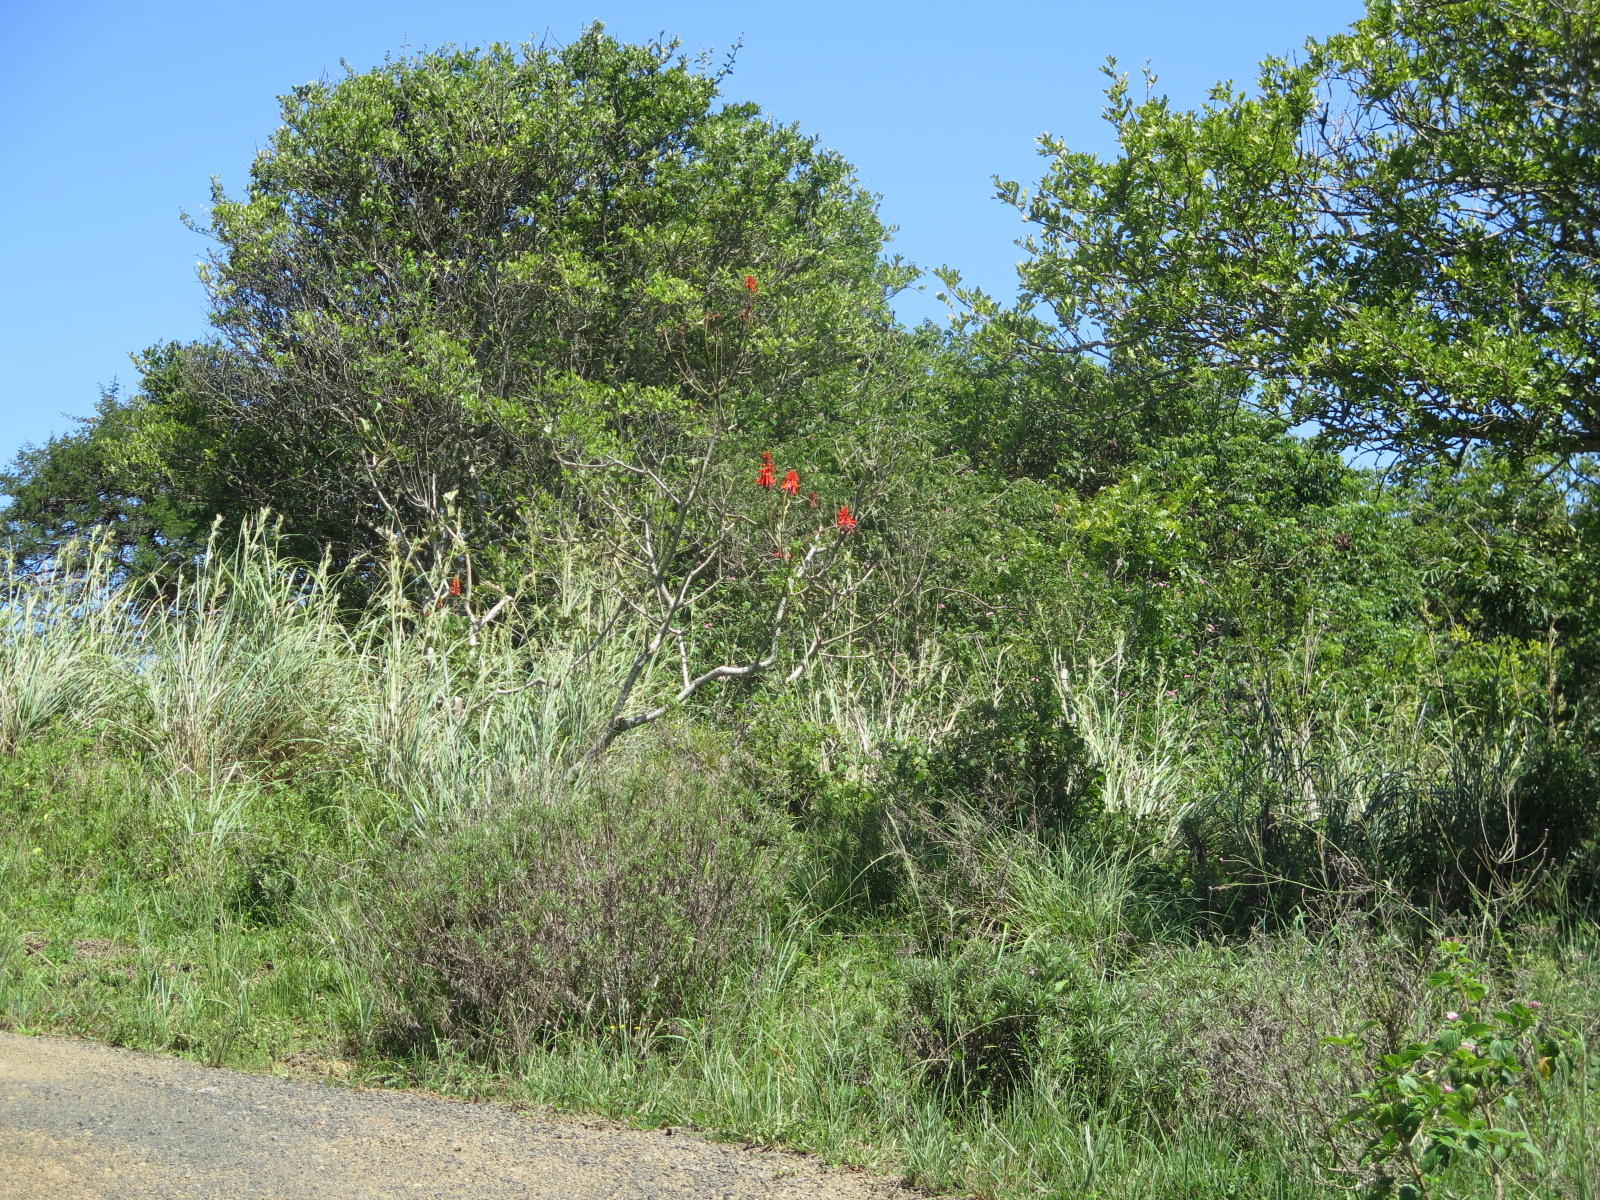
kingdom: Plantae
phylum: Tracheophyta
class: Magnoliopsida
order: Fabales
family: Fabaceae
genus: Erythrina
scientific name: Erythrina humeana
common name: Dwarf coral tree
